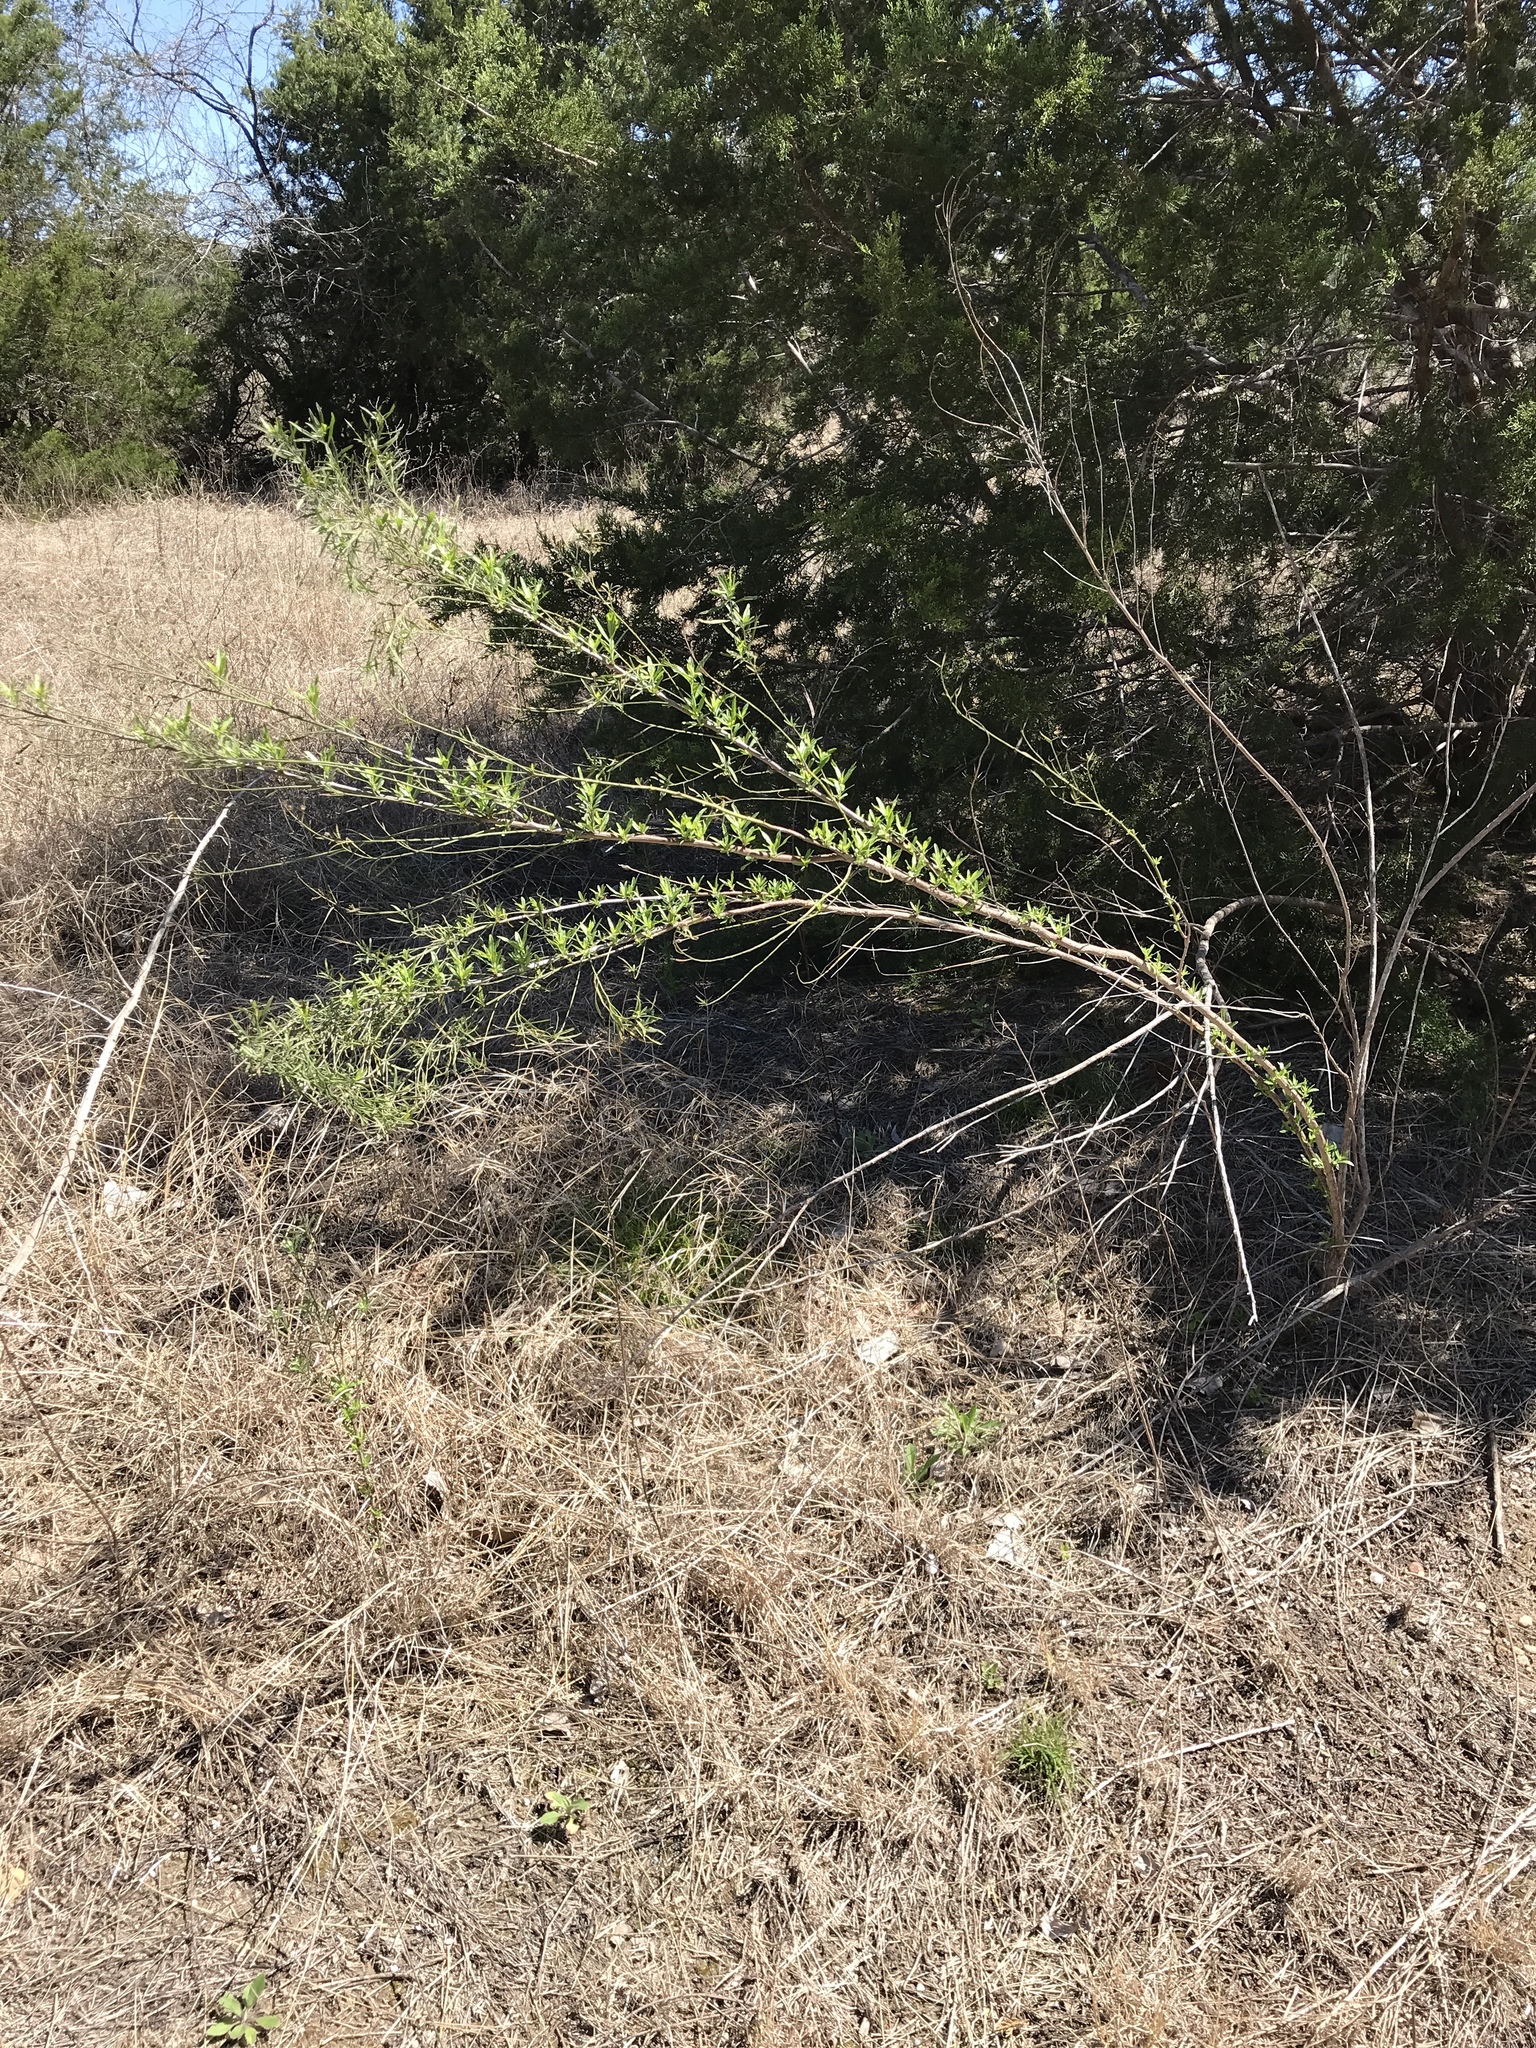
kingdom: Plantae
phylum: Tracheophyta
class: Magnoliopsida
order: Asterales
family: Asteraceae
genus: Baccharis
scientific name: Baccharis neglecta
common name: Roosevelt-weed
